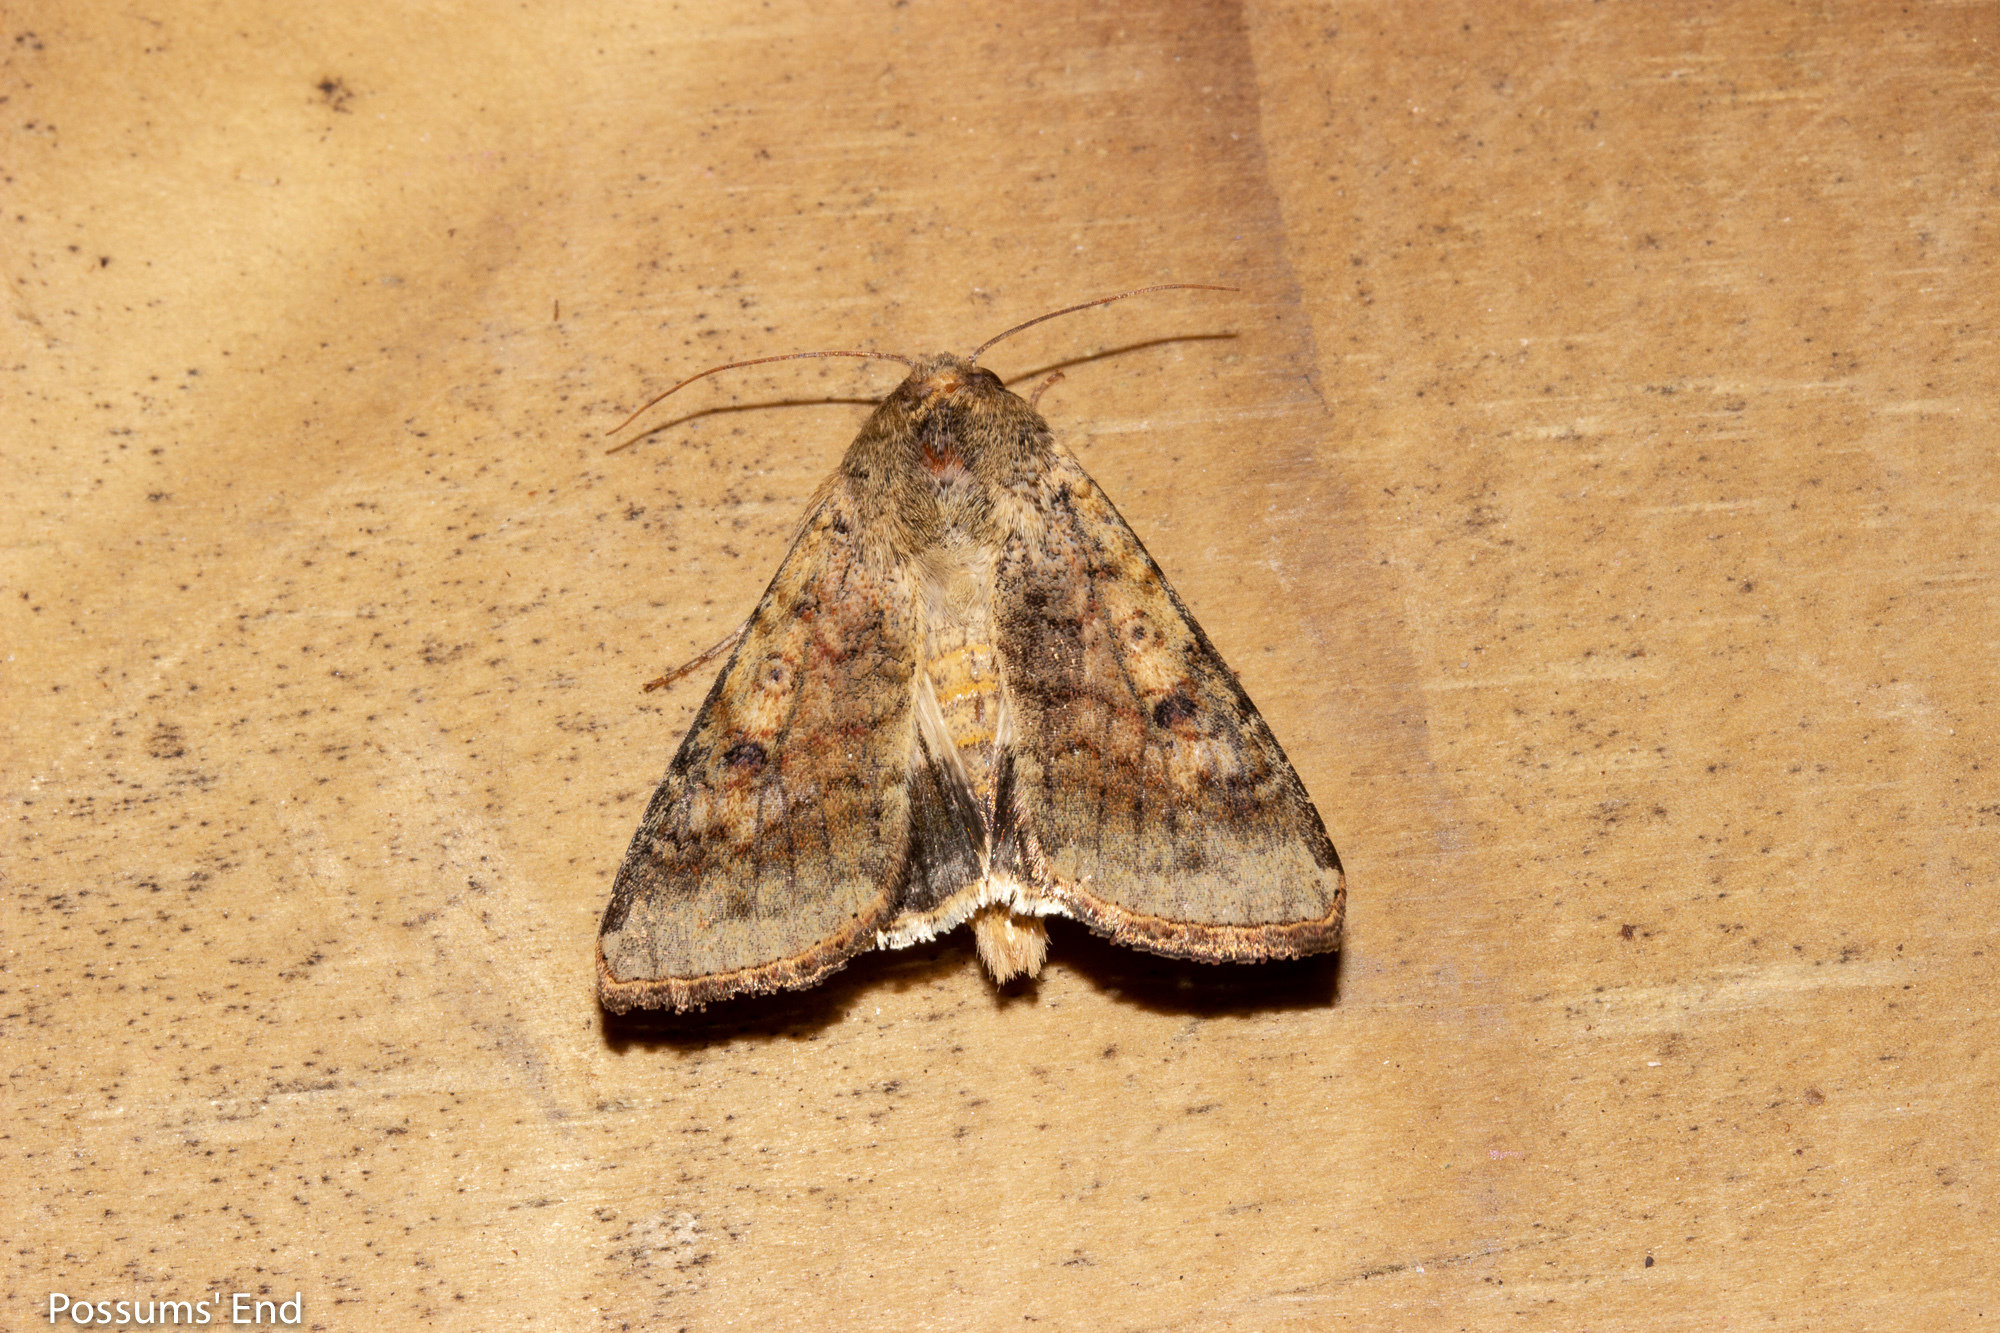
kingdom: Animalia
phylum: Arthropoda
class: Insecta
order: Lepidoptera
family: Noctuidae
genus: Helicoverpa
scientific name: Helicoverpa armigera
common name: Cotton bollworm
